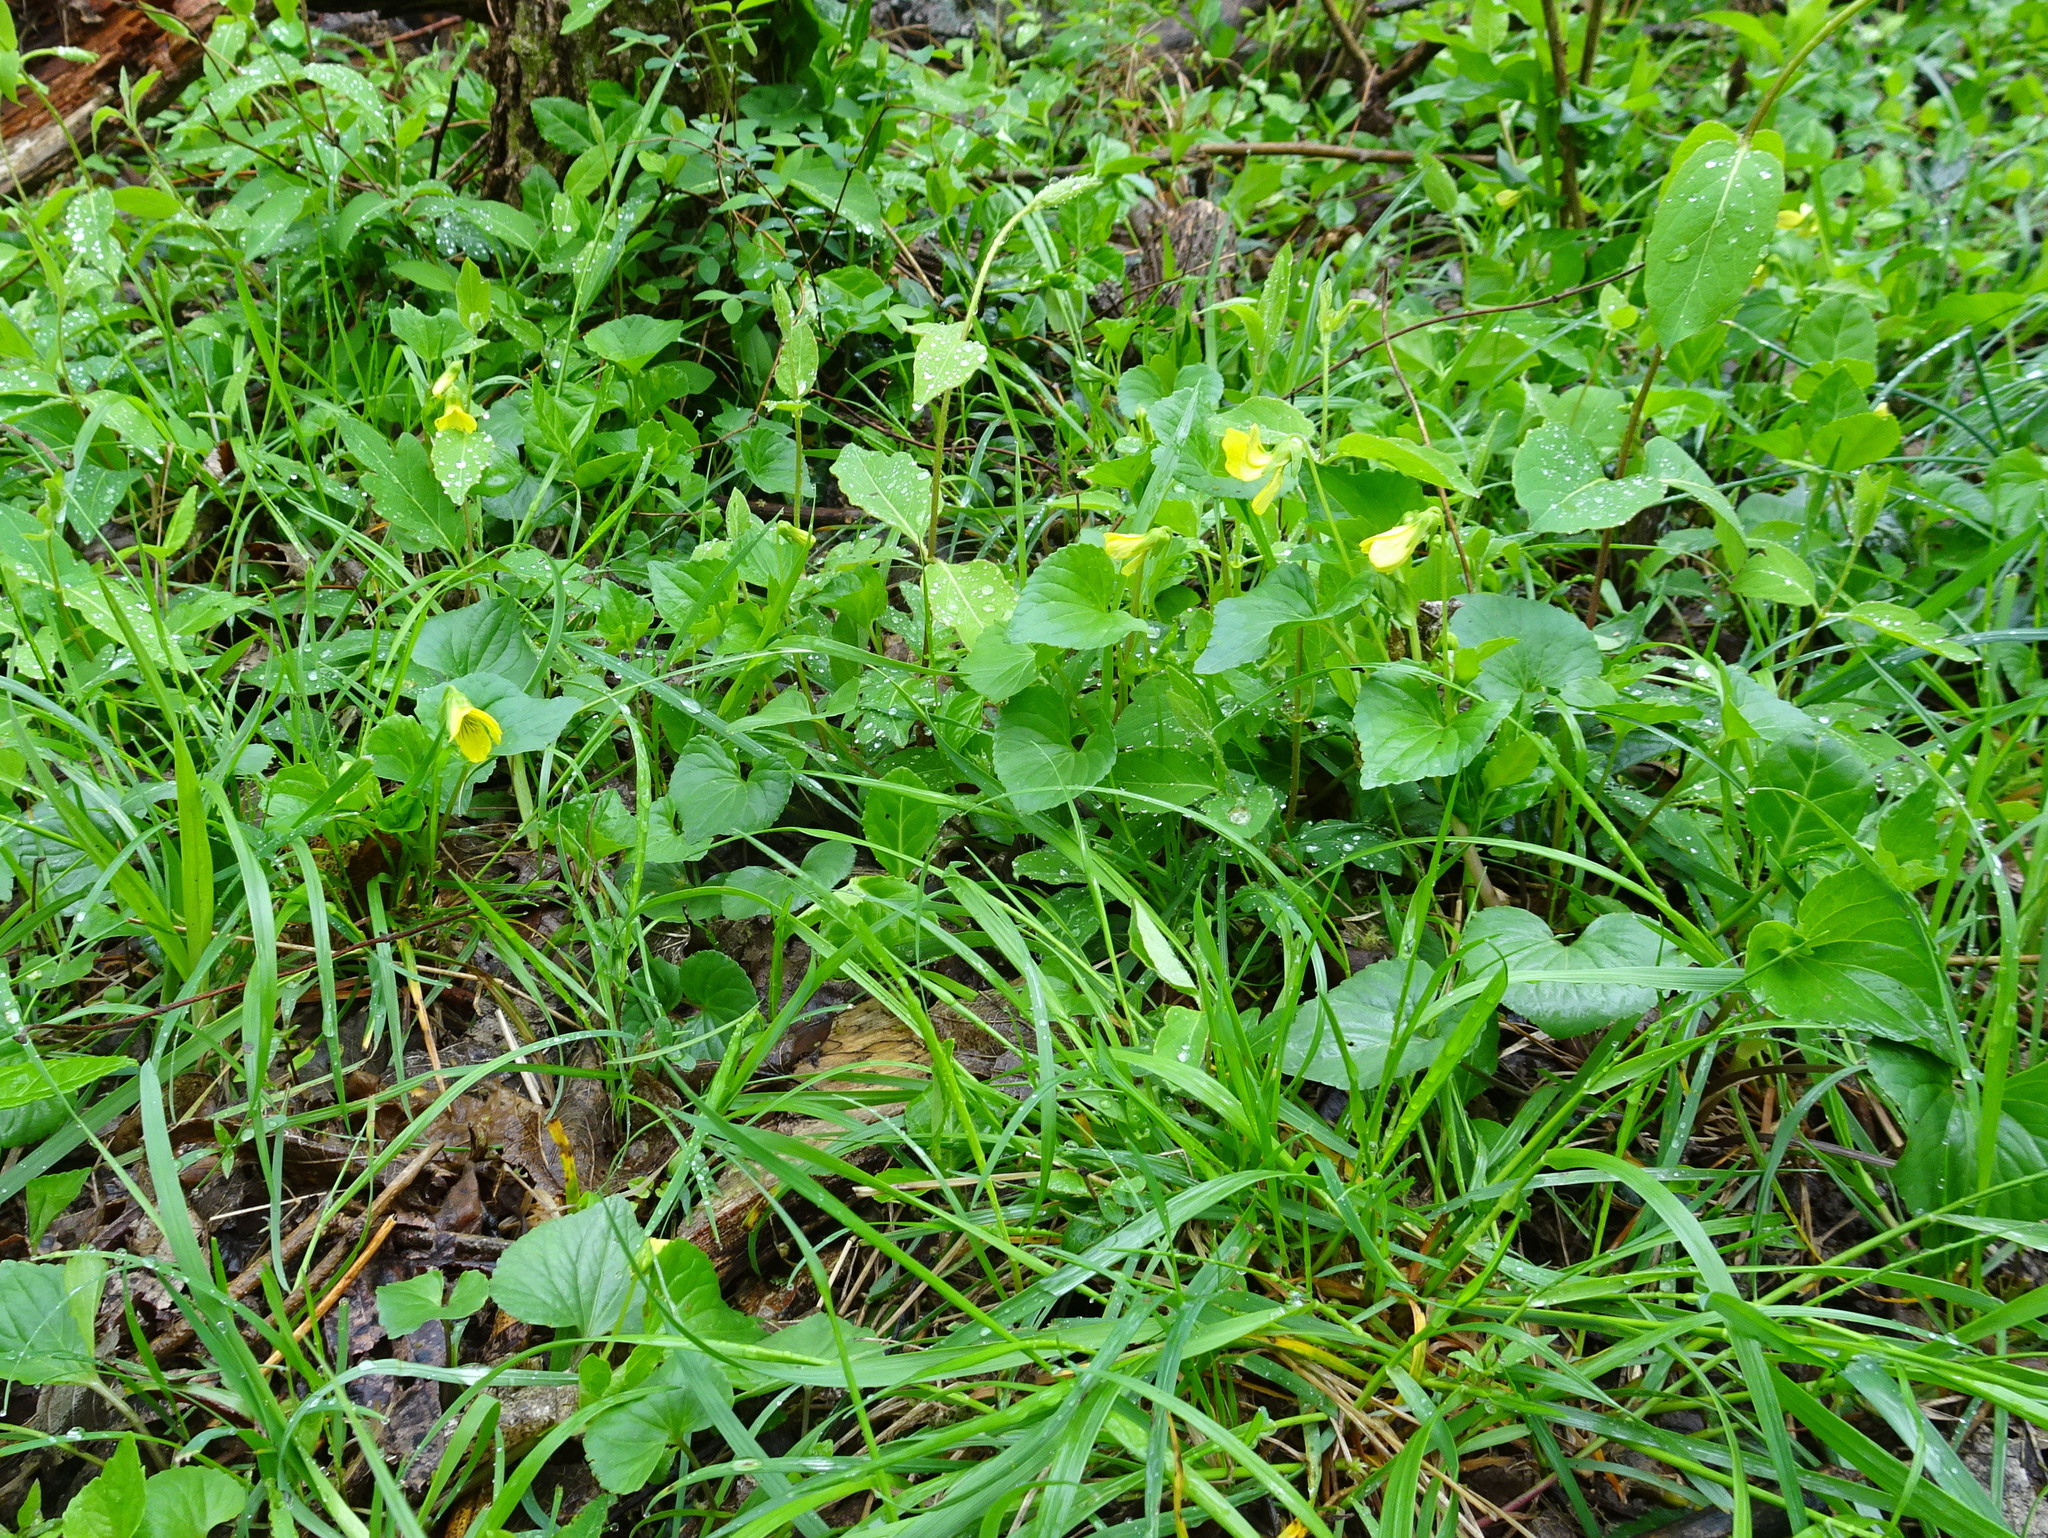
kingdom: Plantae
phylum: Tracheophyta
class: Magnoliopsida
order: Malpighiales
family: Violaceae
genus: Viola
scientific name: Viola eriocarpa
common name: Smooth yellow violet
